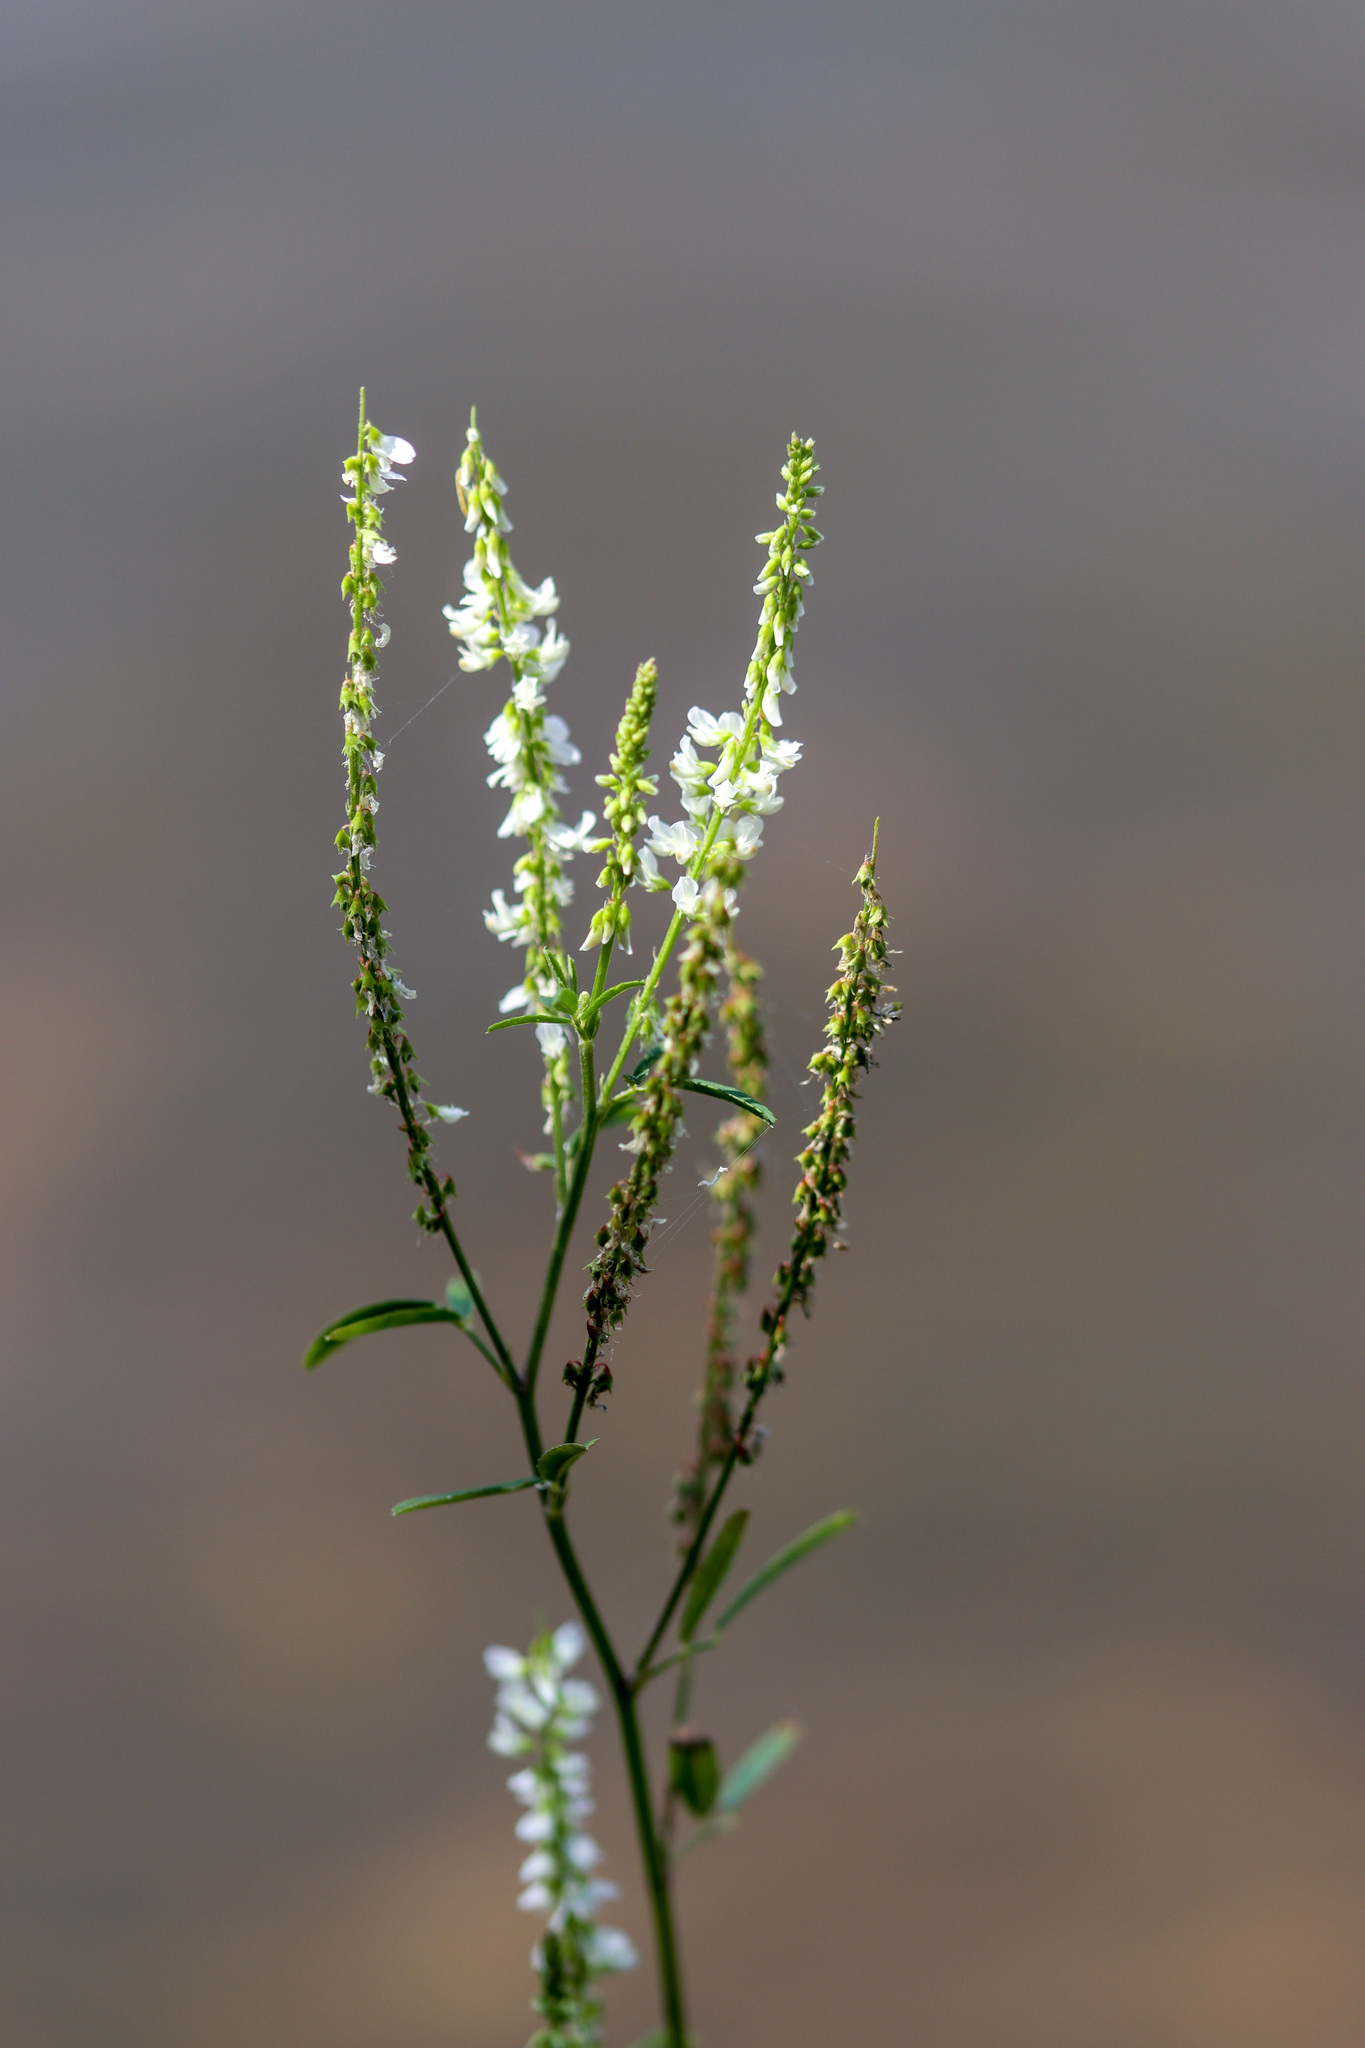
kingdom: Plantae
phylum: Tracheophyta
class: Magnoliopsida
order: Fabales
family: Fabaceae
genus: Melilotus
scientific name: Melilotus albus
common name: White melilot
